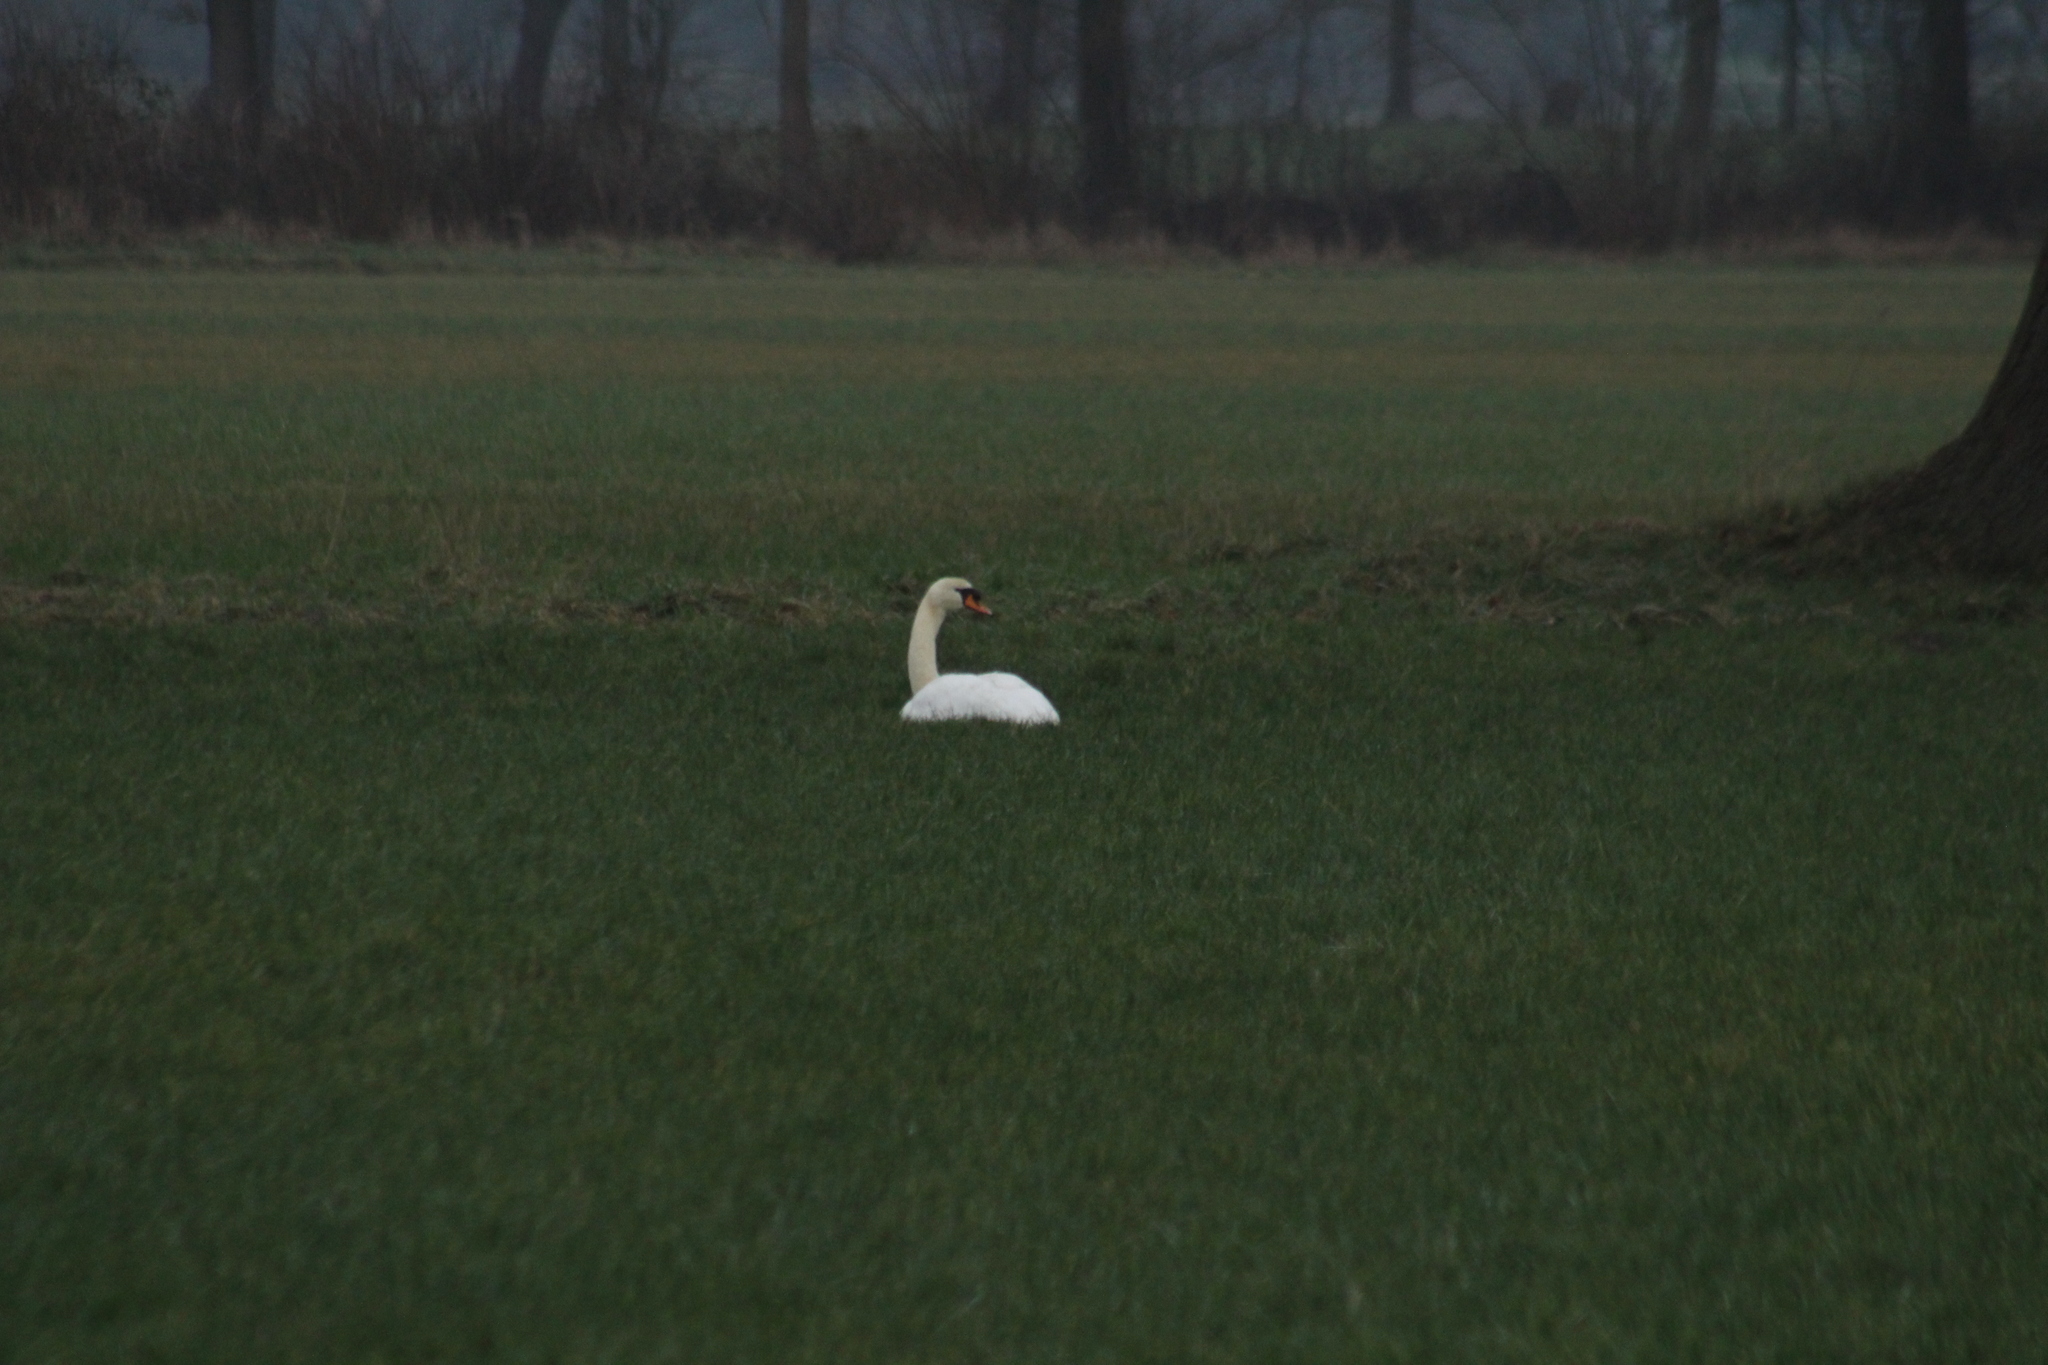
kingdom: Animalia
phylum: Chordata
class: Aves
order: Anseriformes
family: Anatidae
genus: Cygnus
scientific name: Cygnus olor
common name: Mute swan
